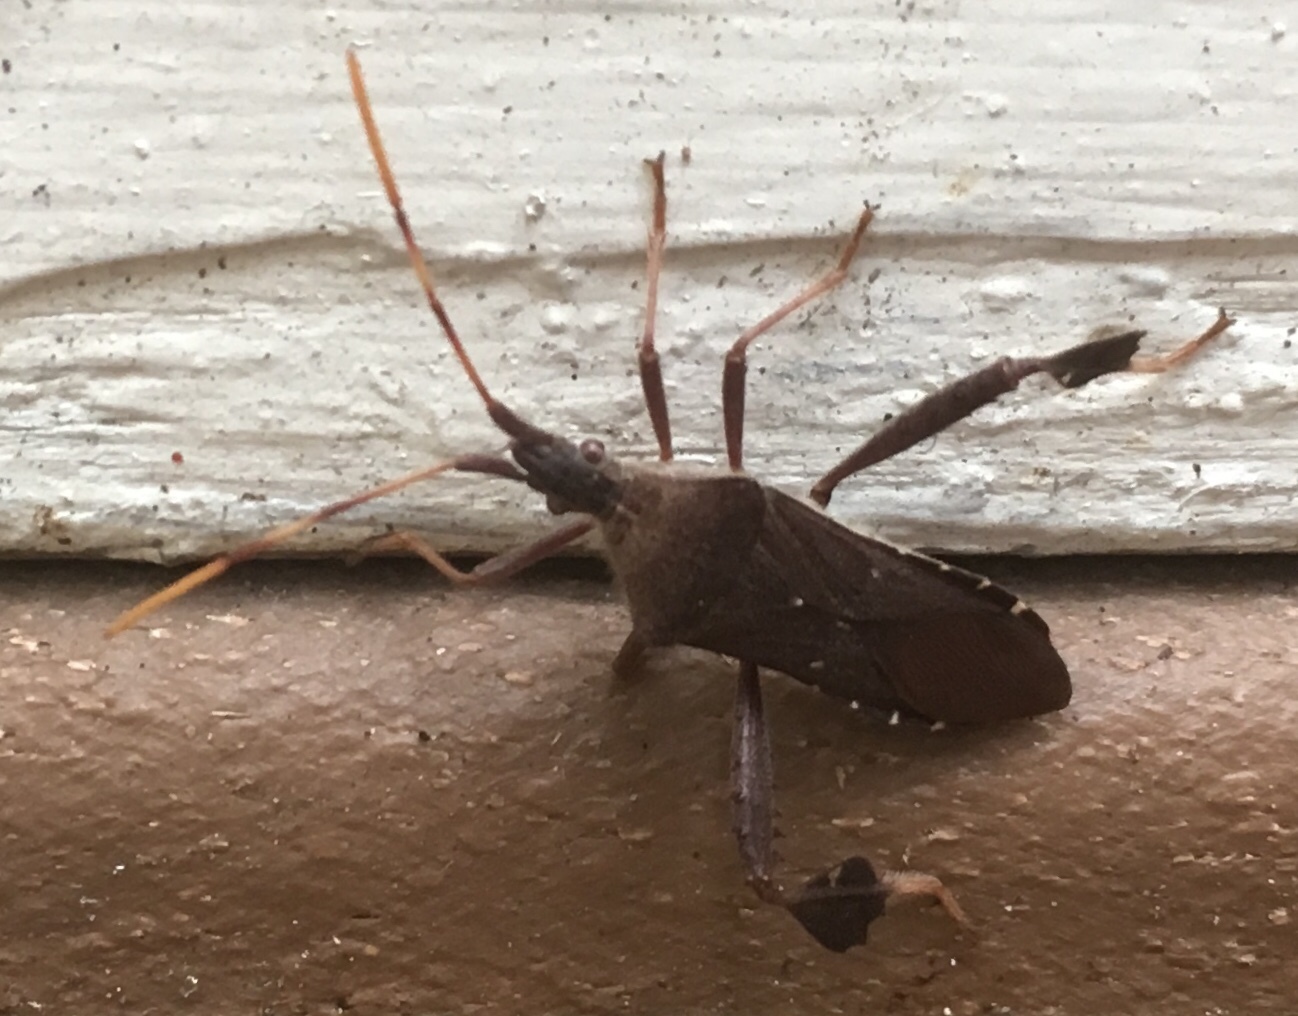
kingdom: Animalia
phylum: Arthropoda
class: Insecta
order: Hemiptera
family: Coreidae
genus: Leptoglossus
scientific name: Leptoglossus oppositus
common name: Northern leaf-footed bug
